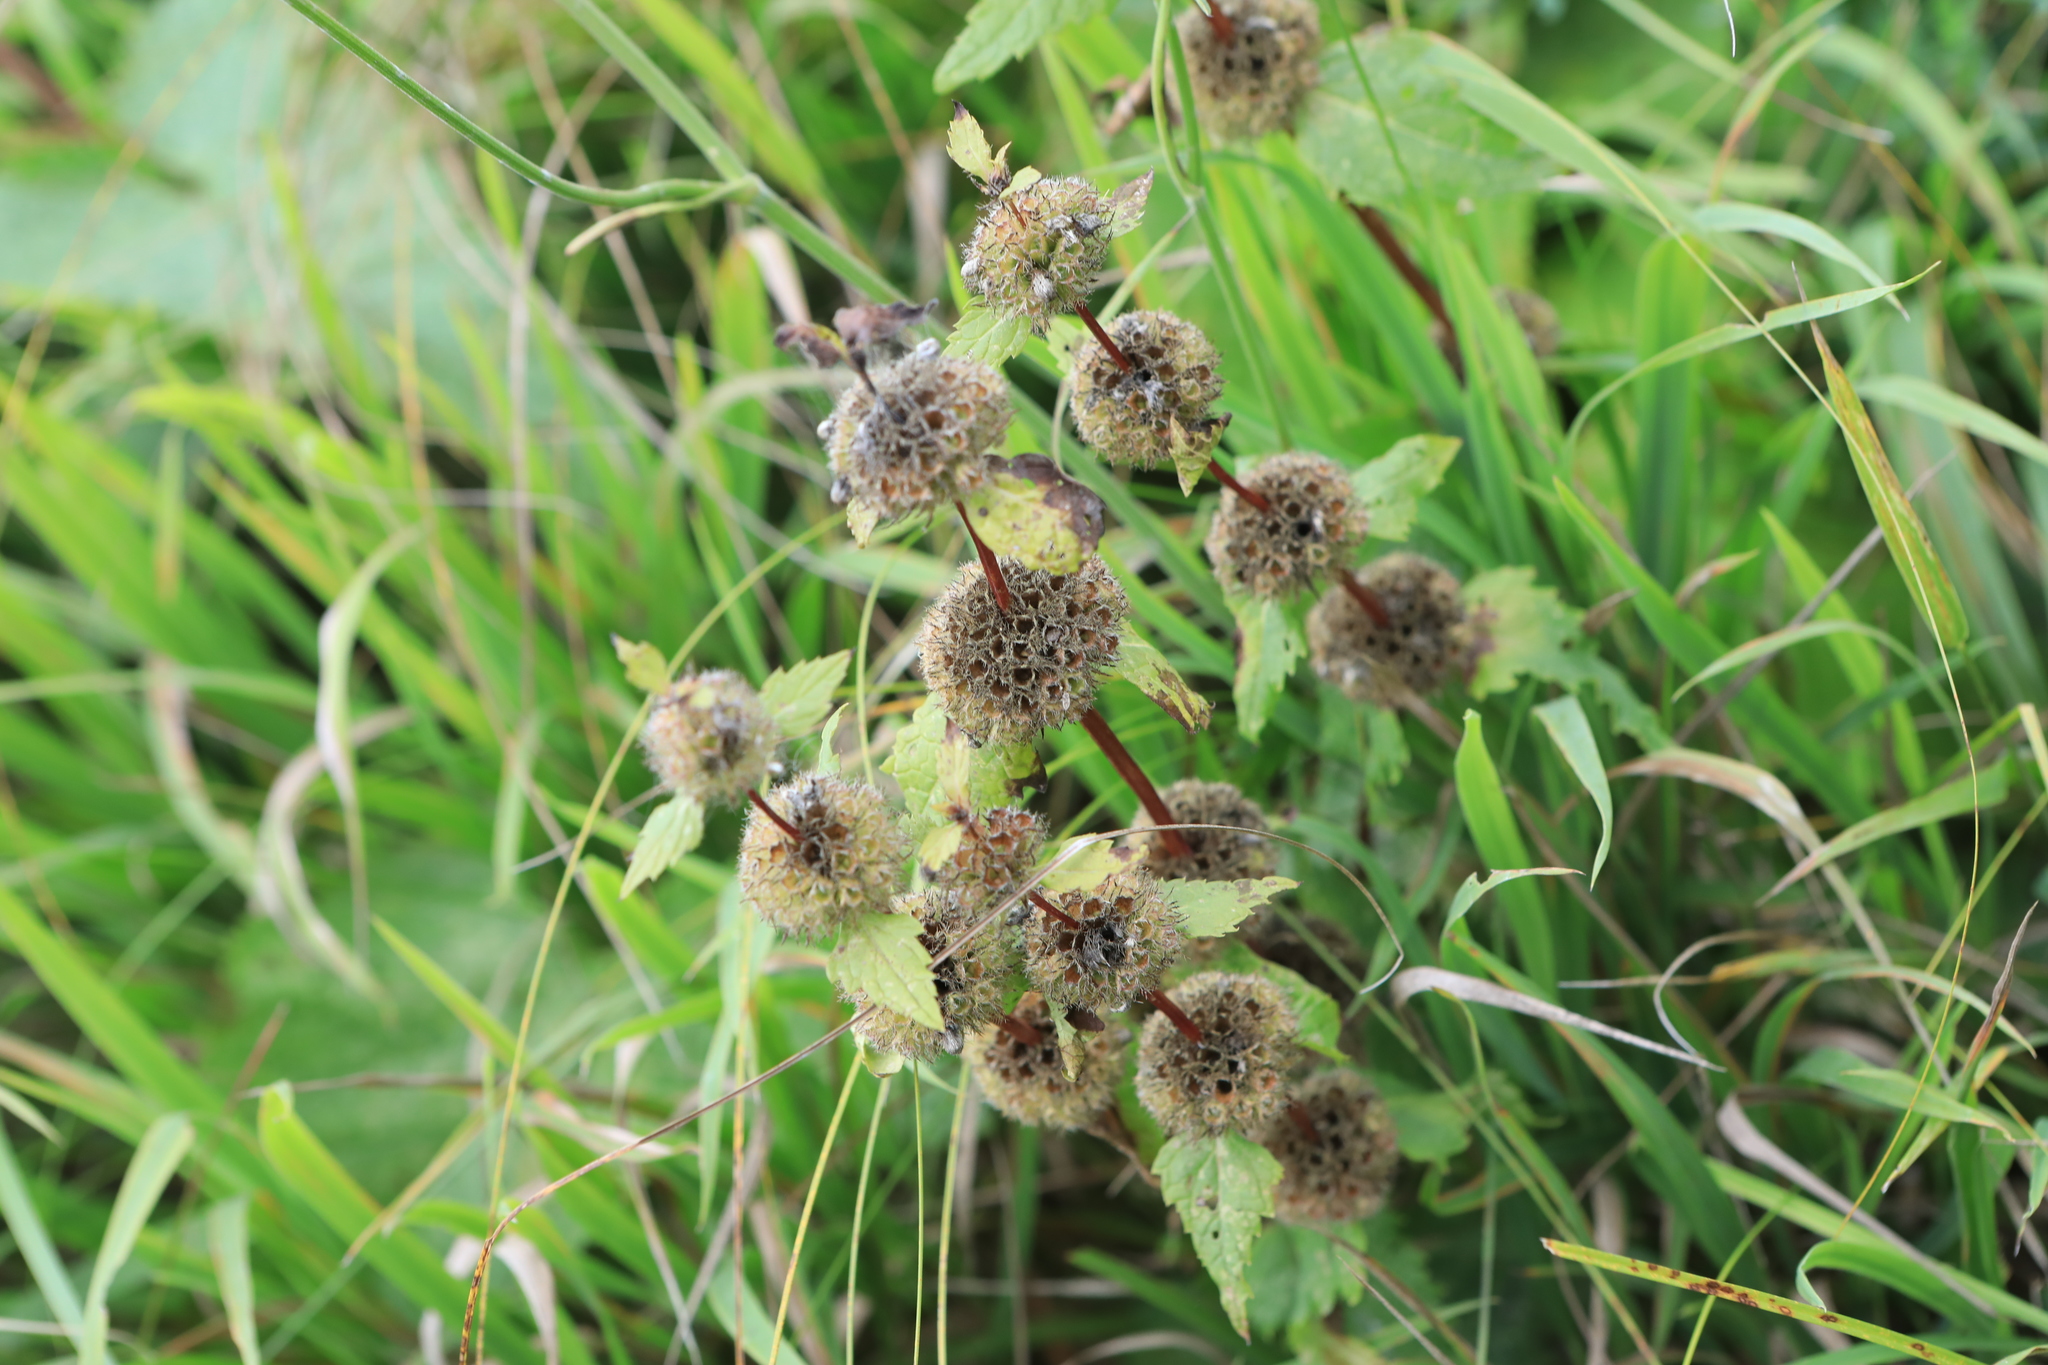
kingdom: Plantae
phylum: Tracheophyta
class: Magnoliopsida
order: Lamiales
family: Lamiaceae
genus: Phlomoides
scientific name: Phlomoides tuberosa
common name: Tuberous jerusalem sage
